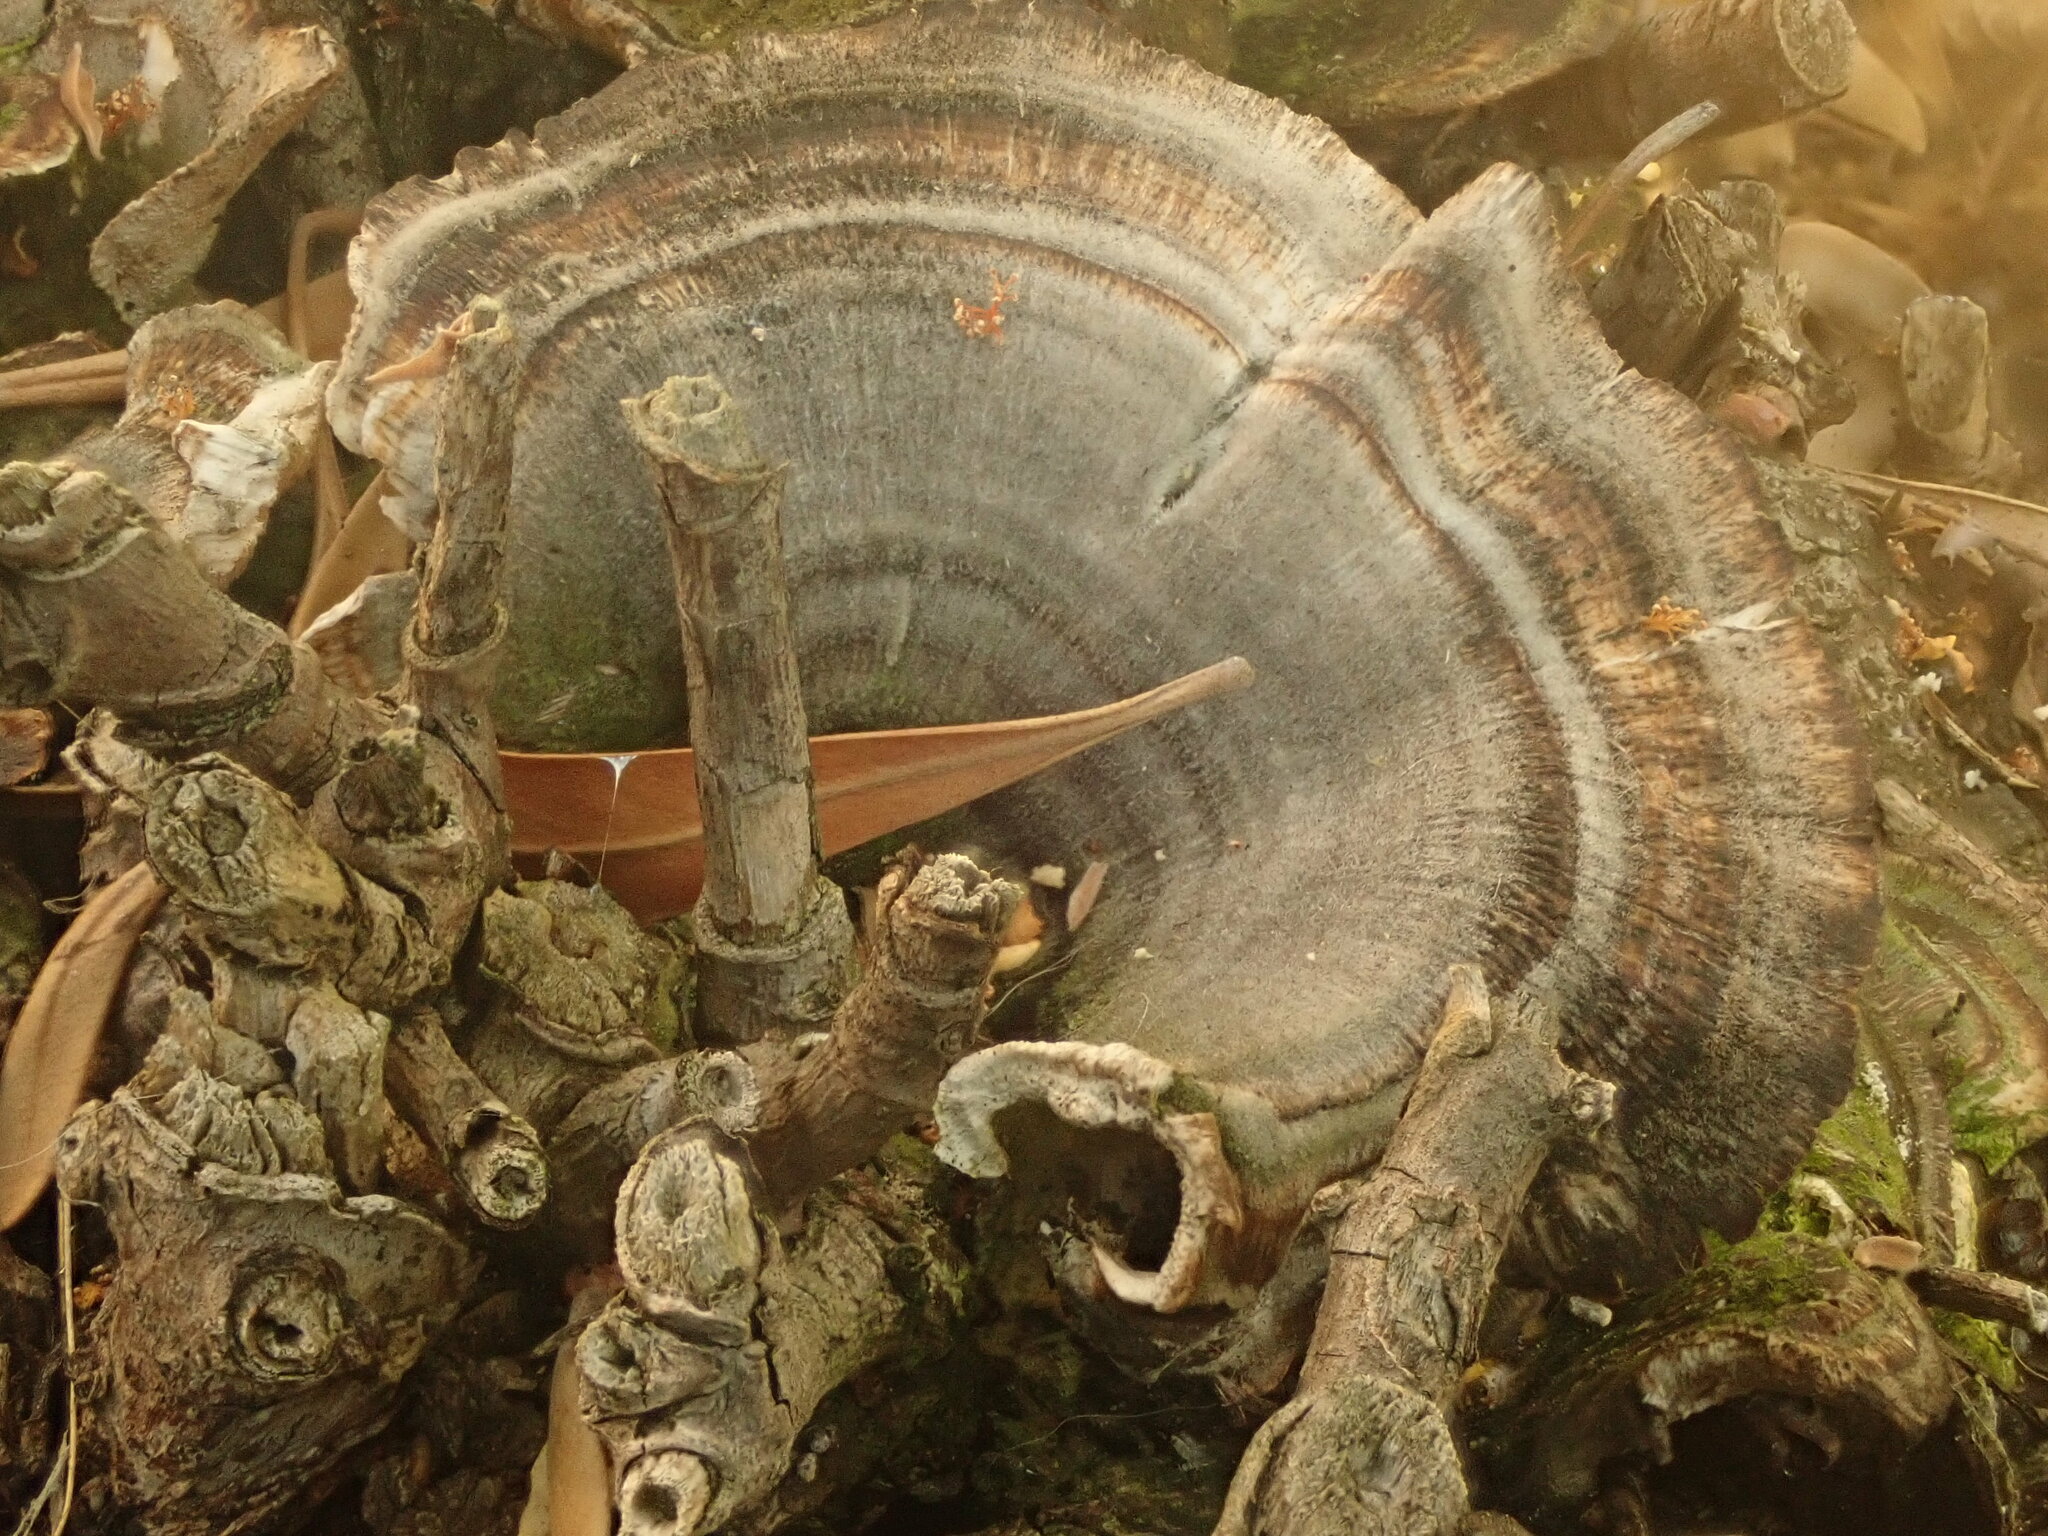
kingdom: Fungi
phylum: Basidiomycota
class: Agaricomycetes
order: Polyporales
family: Polyporaceae
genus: Trametes
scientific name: Trametes versicolor
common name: Turkeytail
